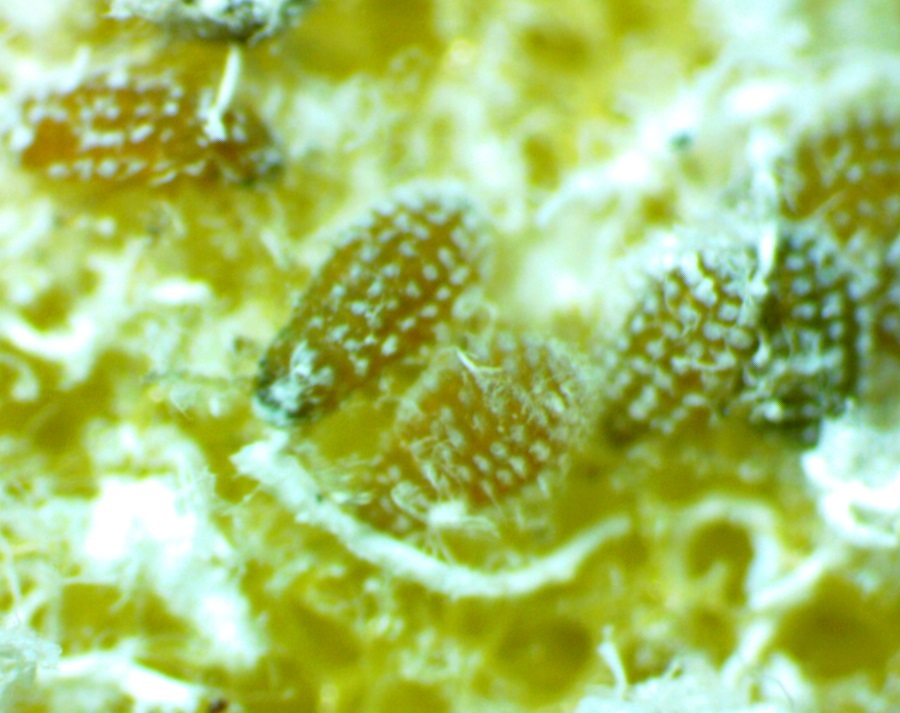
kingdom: Animalia
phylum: Arthropoda
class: Insecta
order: Hemiptera
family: Aphididae
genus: Prociphilus
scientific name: Prociphilus tessellatus
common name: Woolly alder aphid
